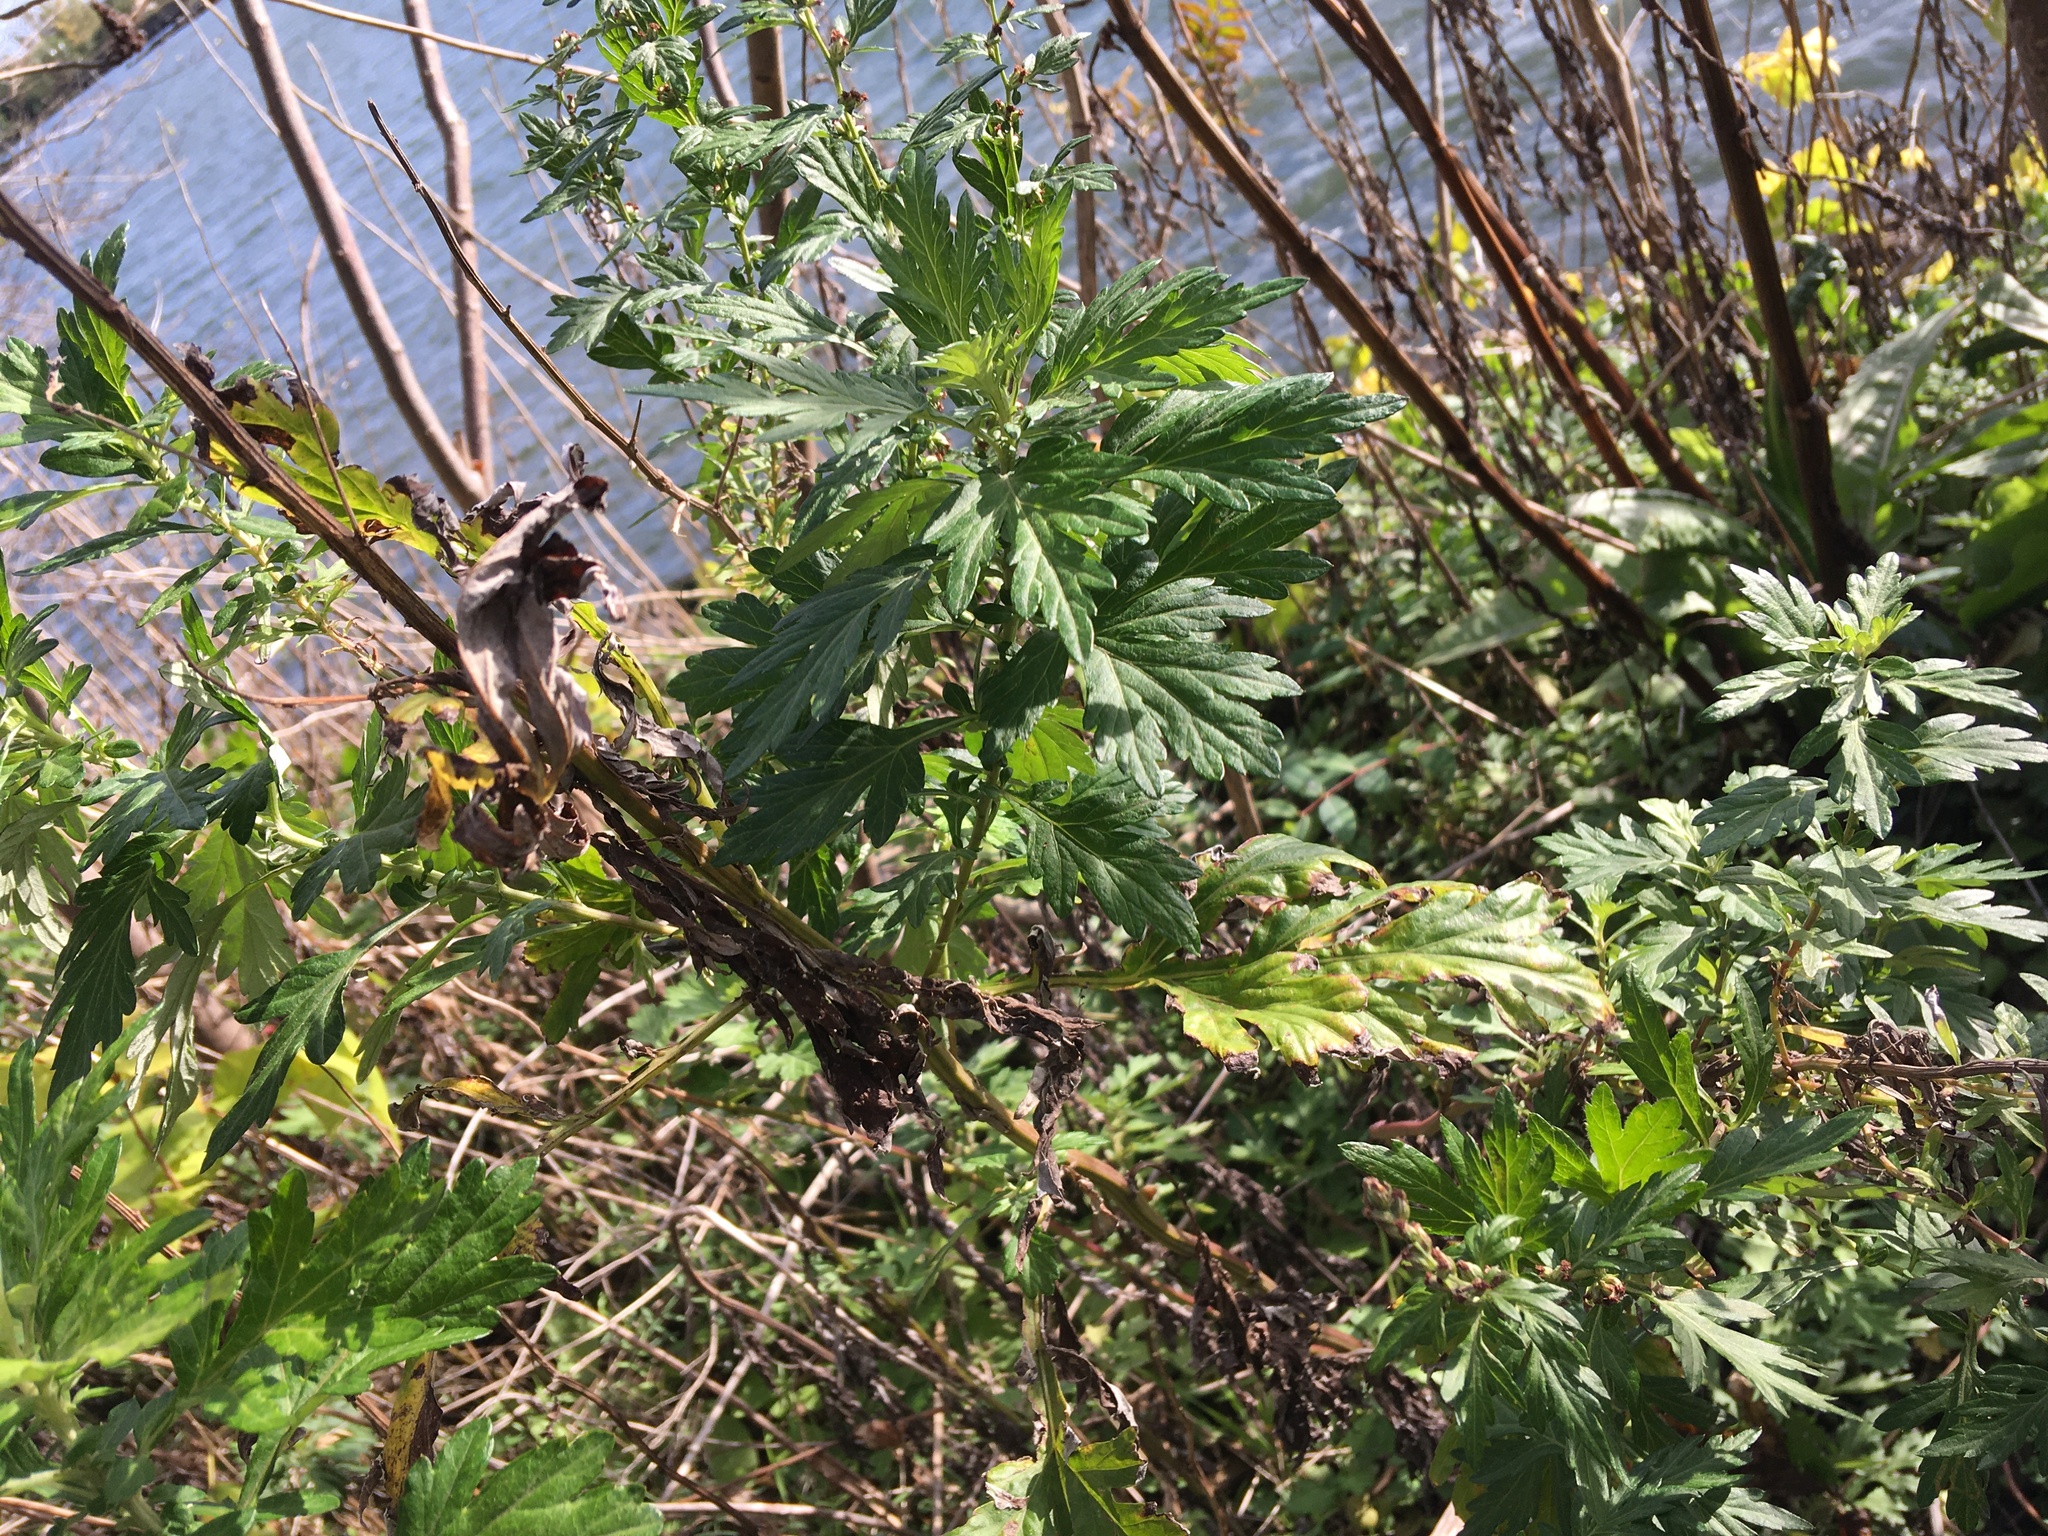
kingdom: Plantae
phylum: Tracheophyta
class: Magnoliopsida
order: Asterales
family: Asteraceae
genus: Artemisia
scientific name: Artemisia vulgaris
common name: Mugwort
